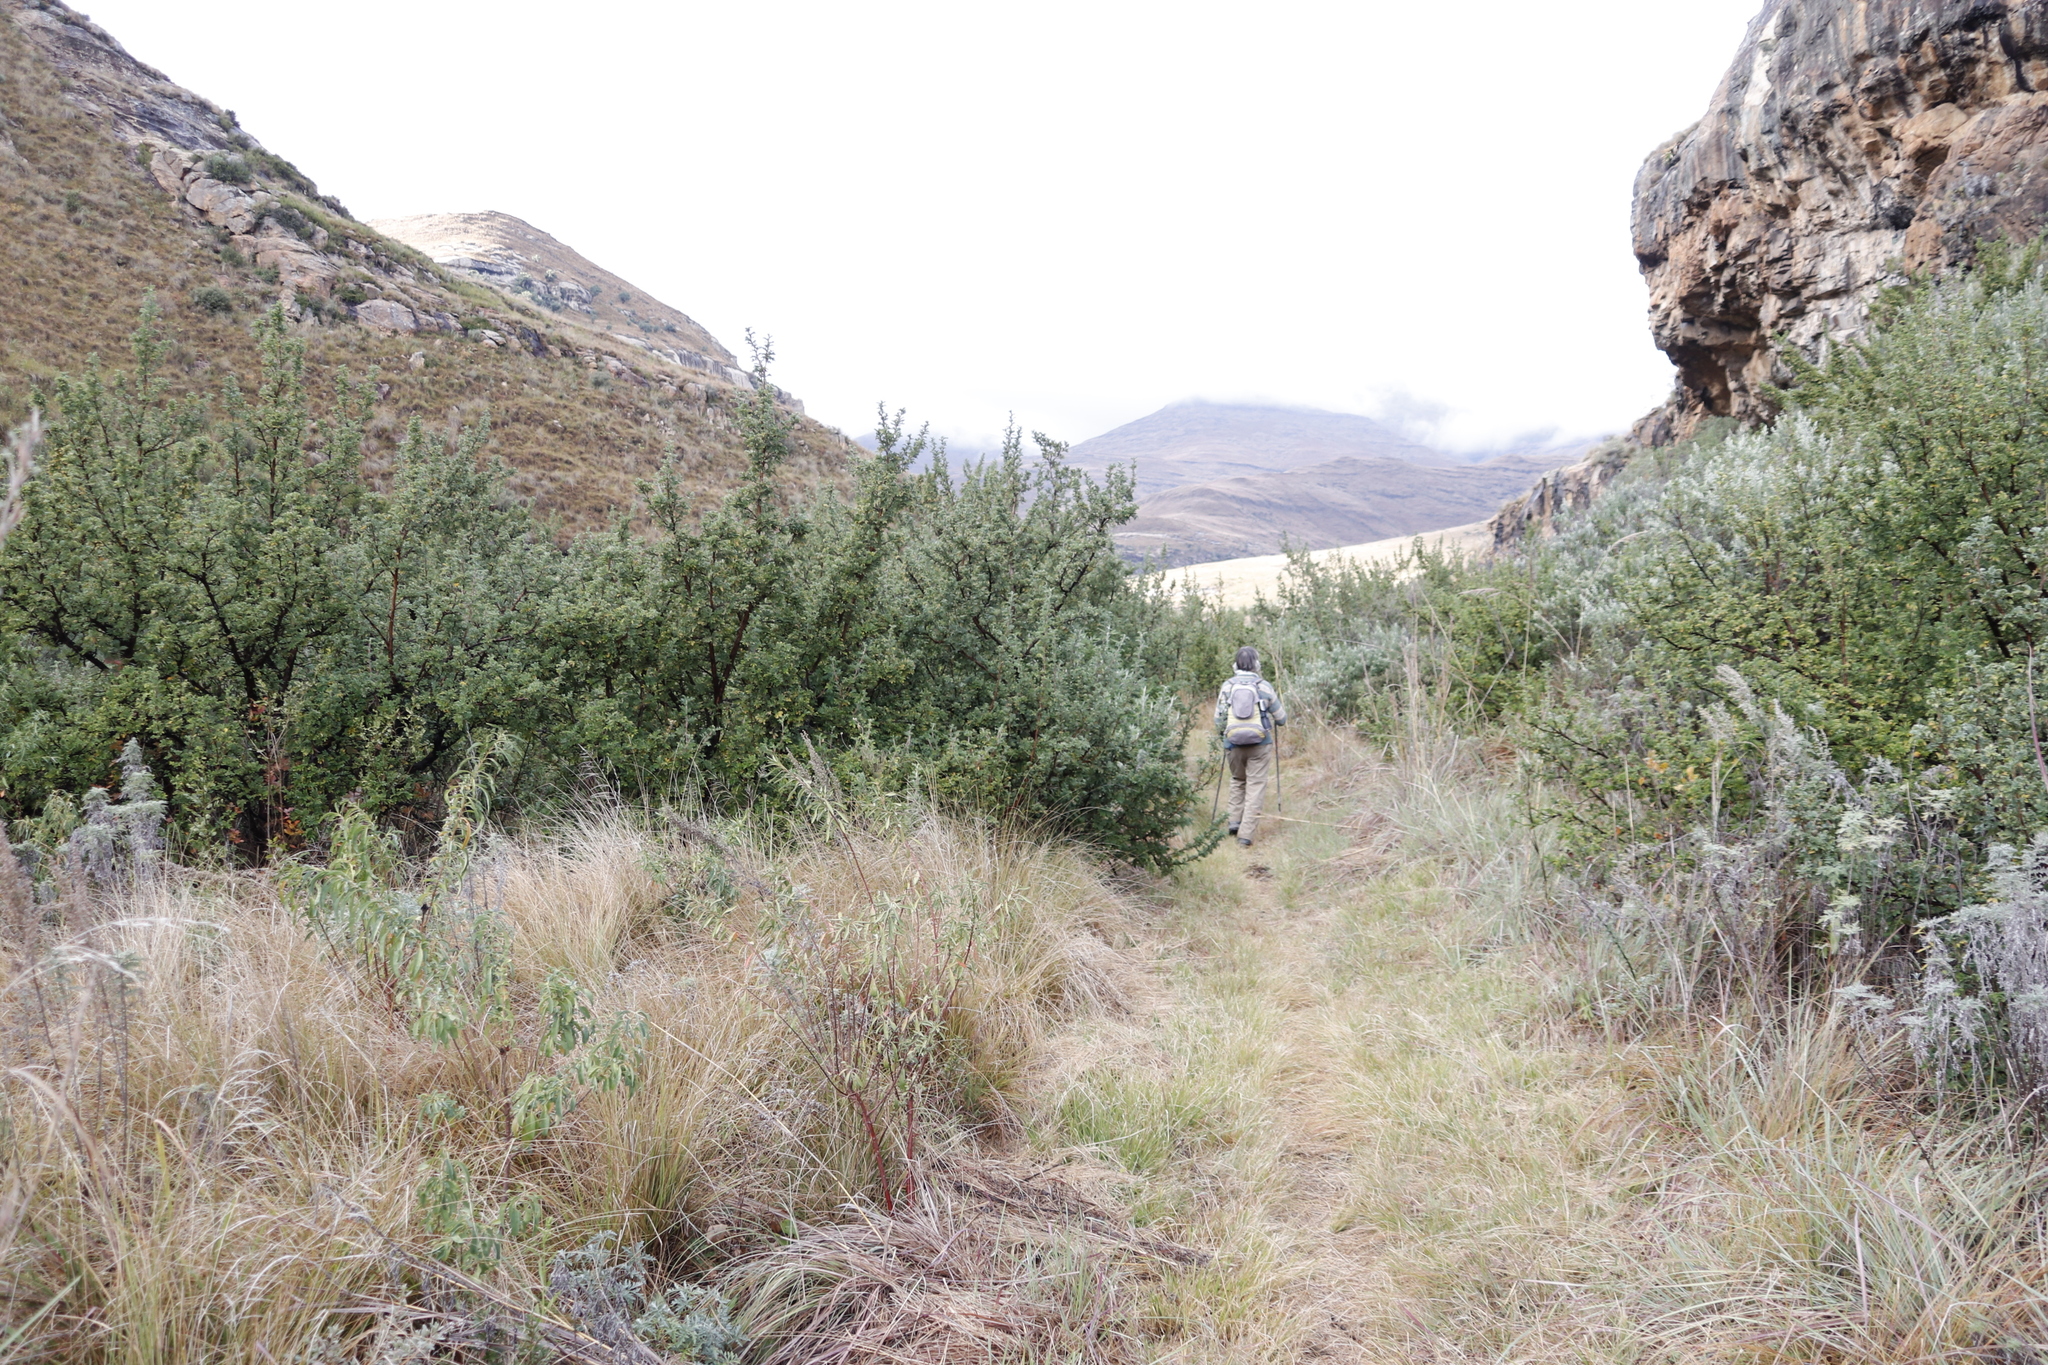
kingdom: Plantae
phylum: Tracheophyta
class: Magnoliopsida
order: Rosales
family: Rosaceae
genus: Leucosidea
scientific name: Leucosidea sericea
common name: Oldwood
